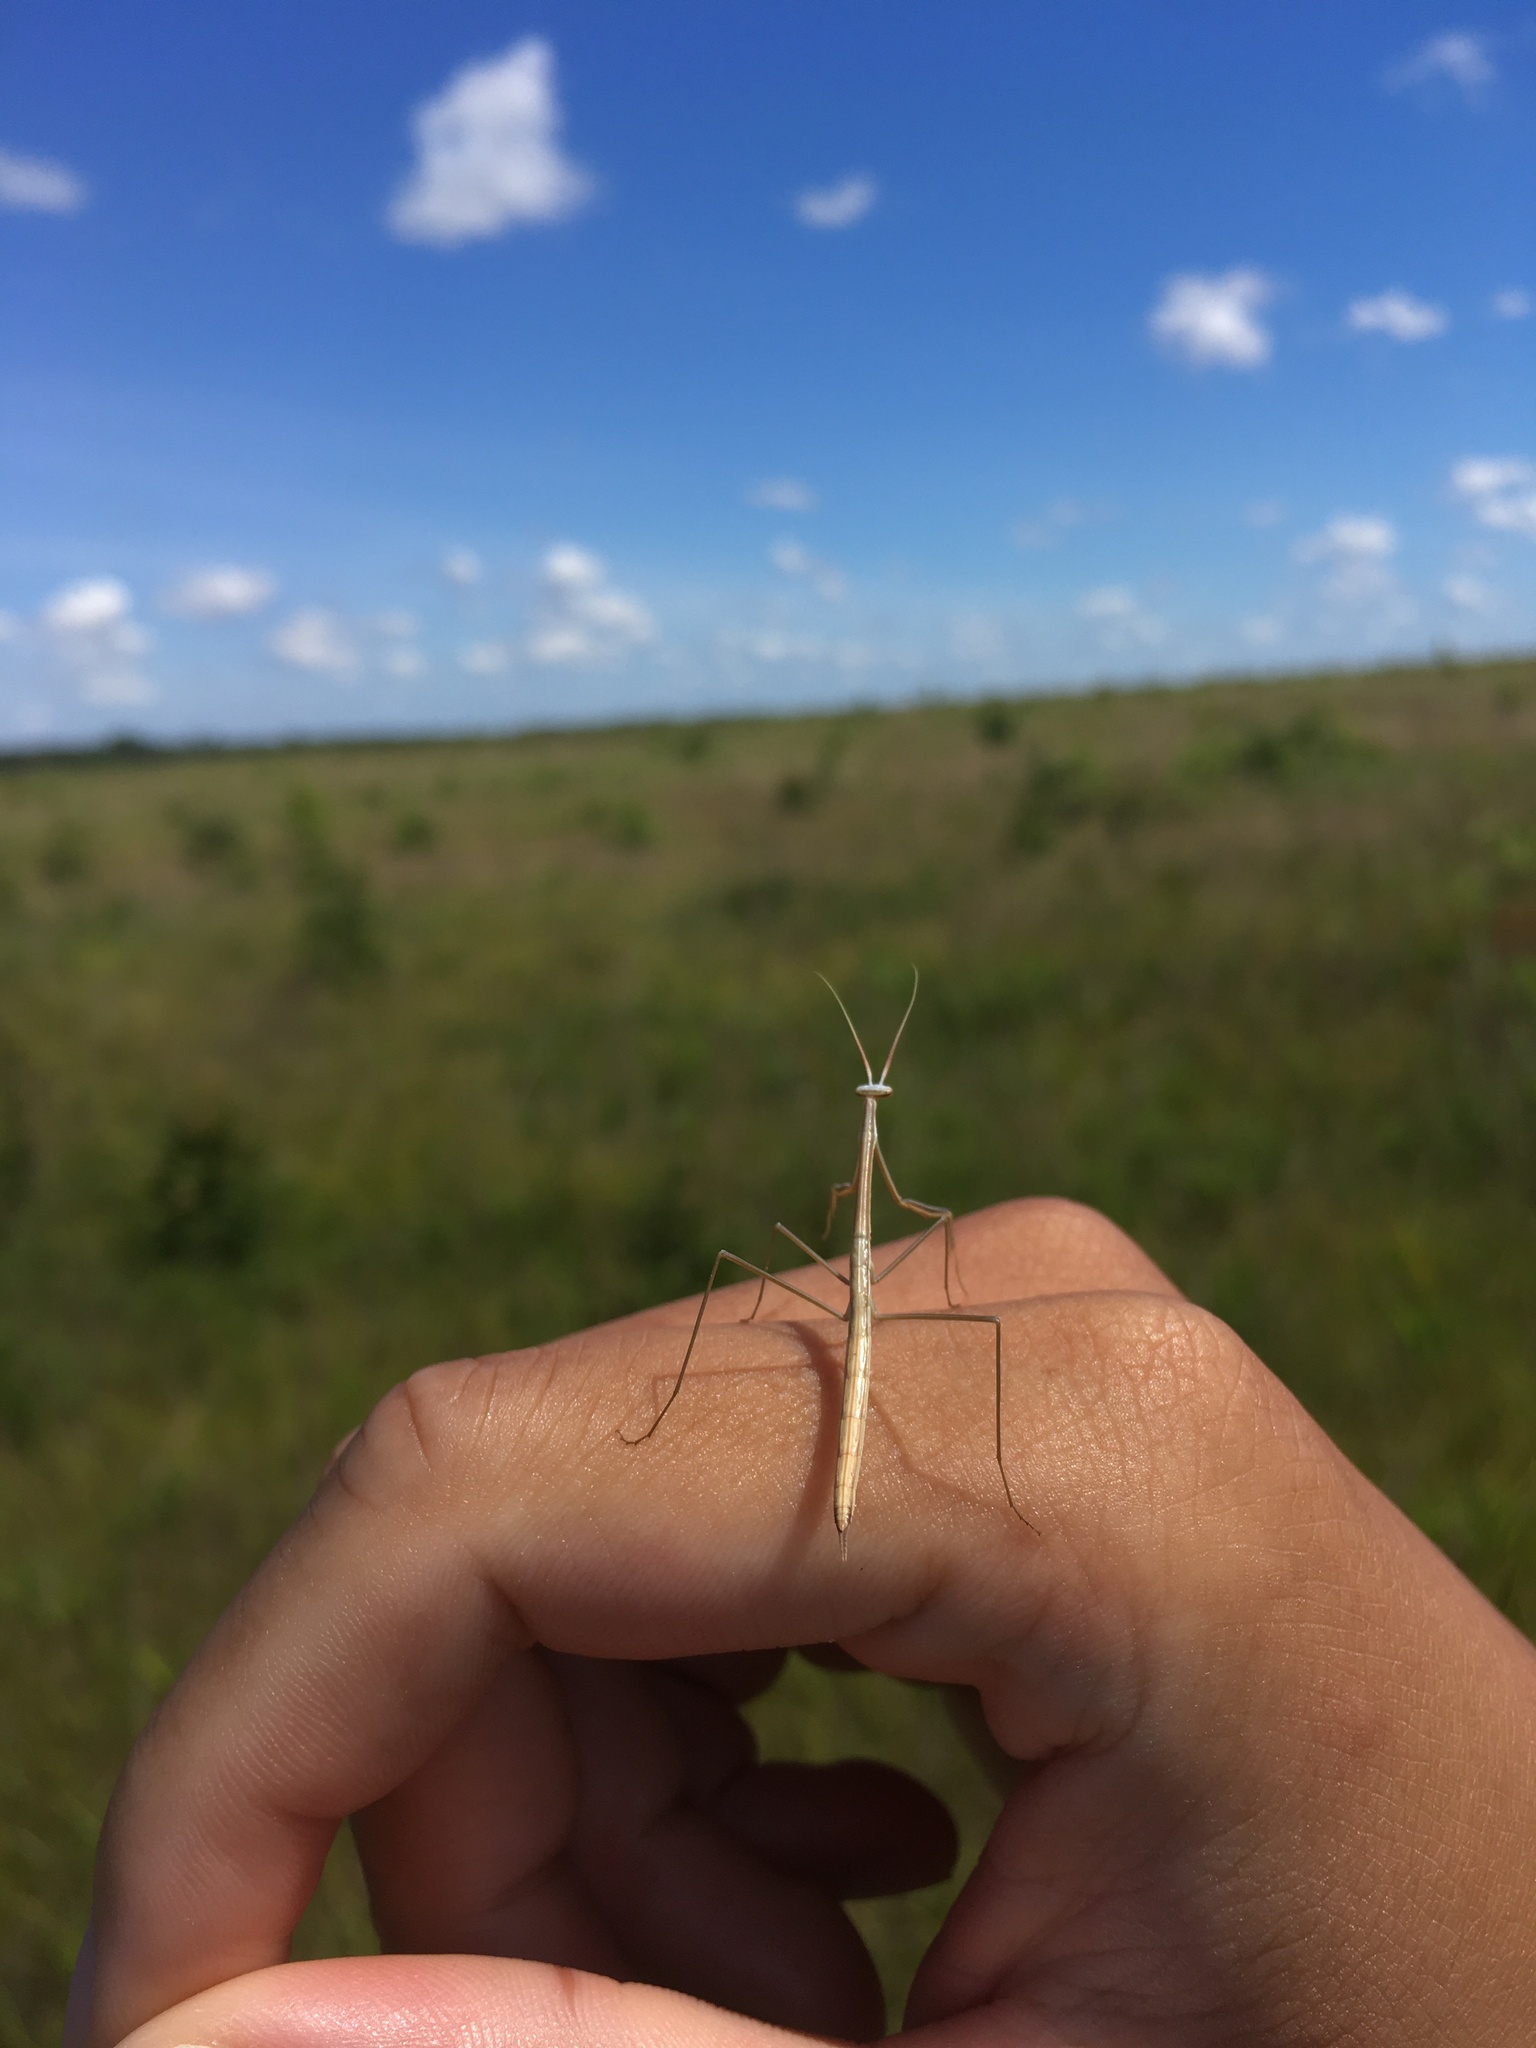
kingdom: Animalia
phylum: Arthropoda
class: Insecta
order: Mantodea
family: Coptopterygidae
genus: Brunneria
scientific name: Brunneria borealis
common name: Mantis
